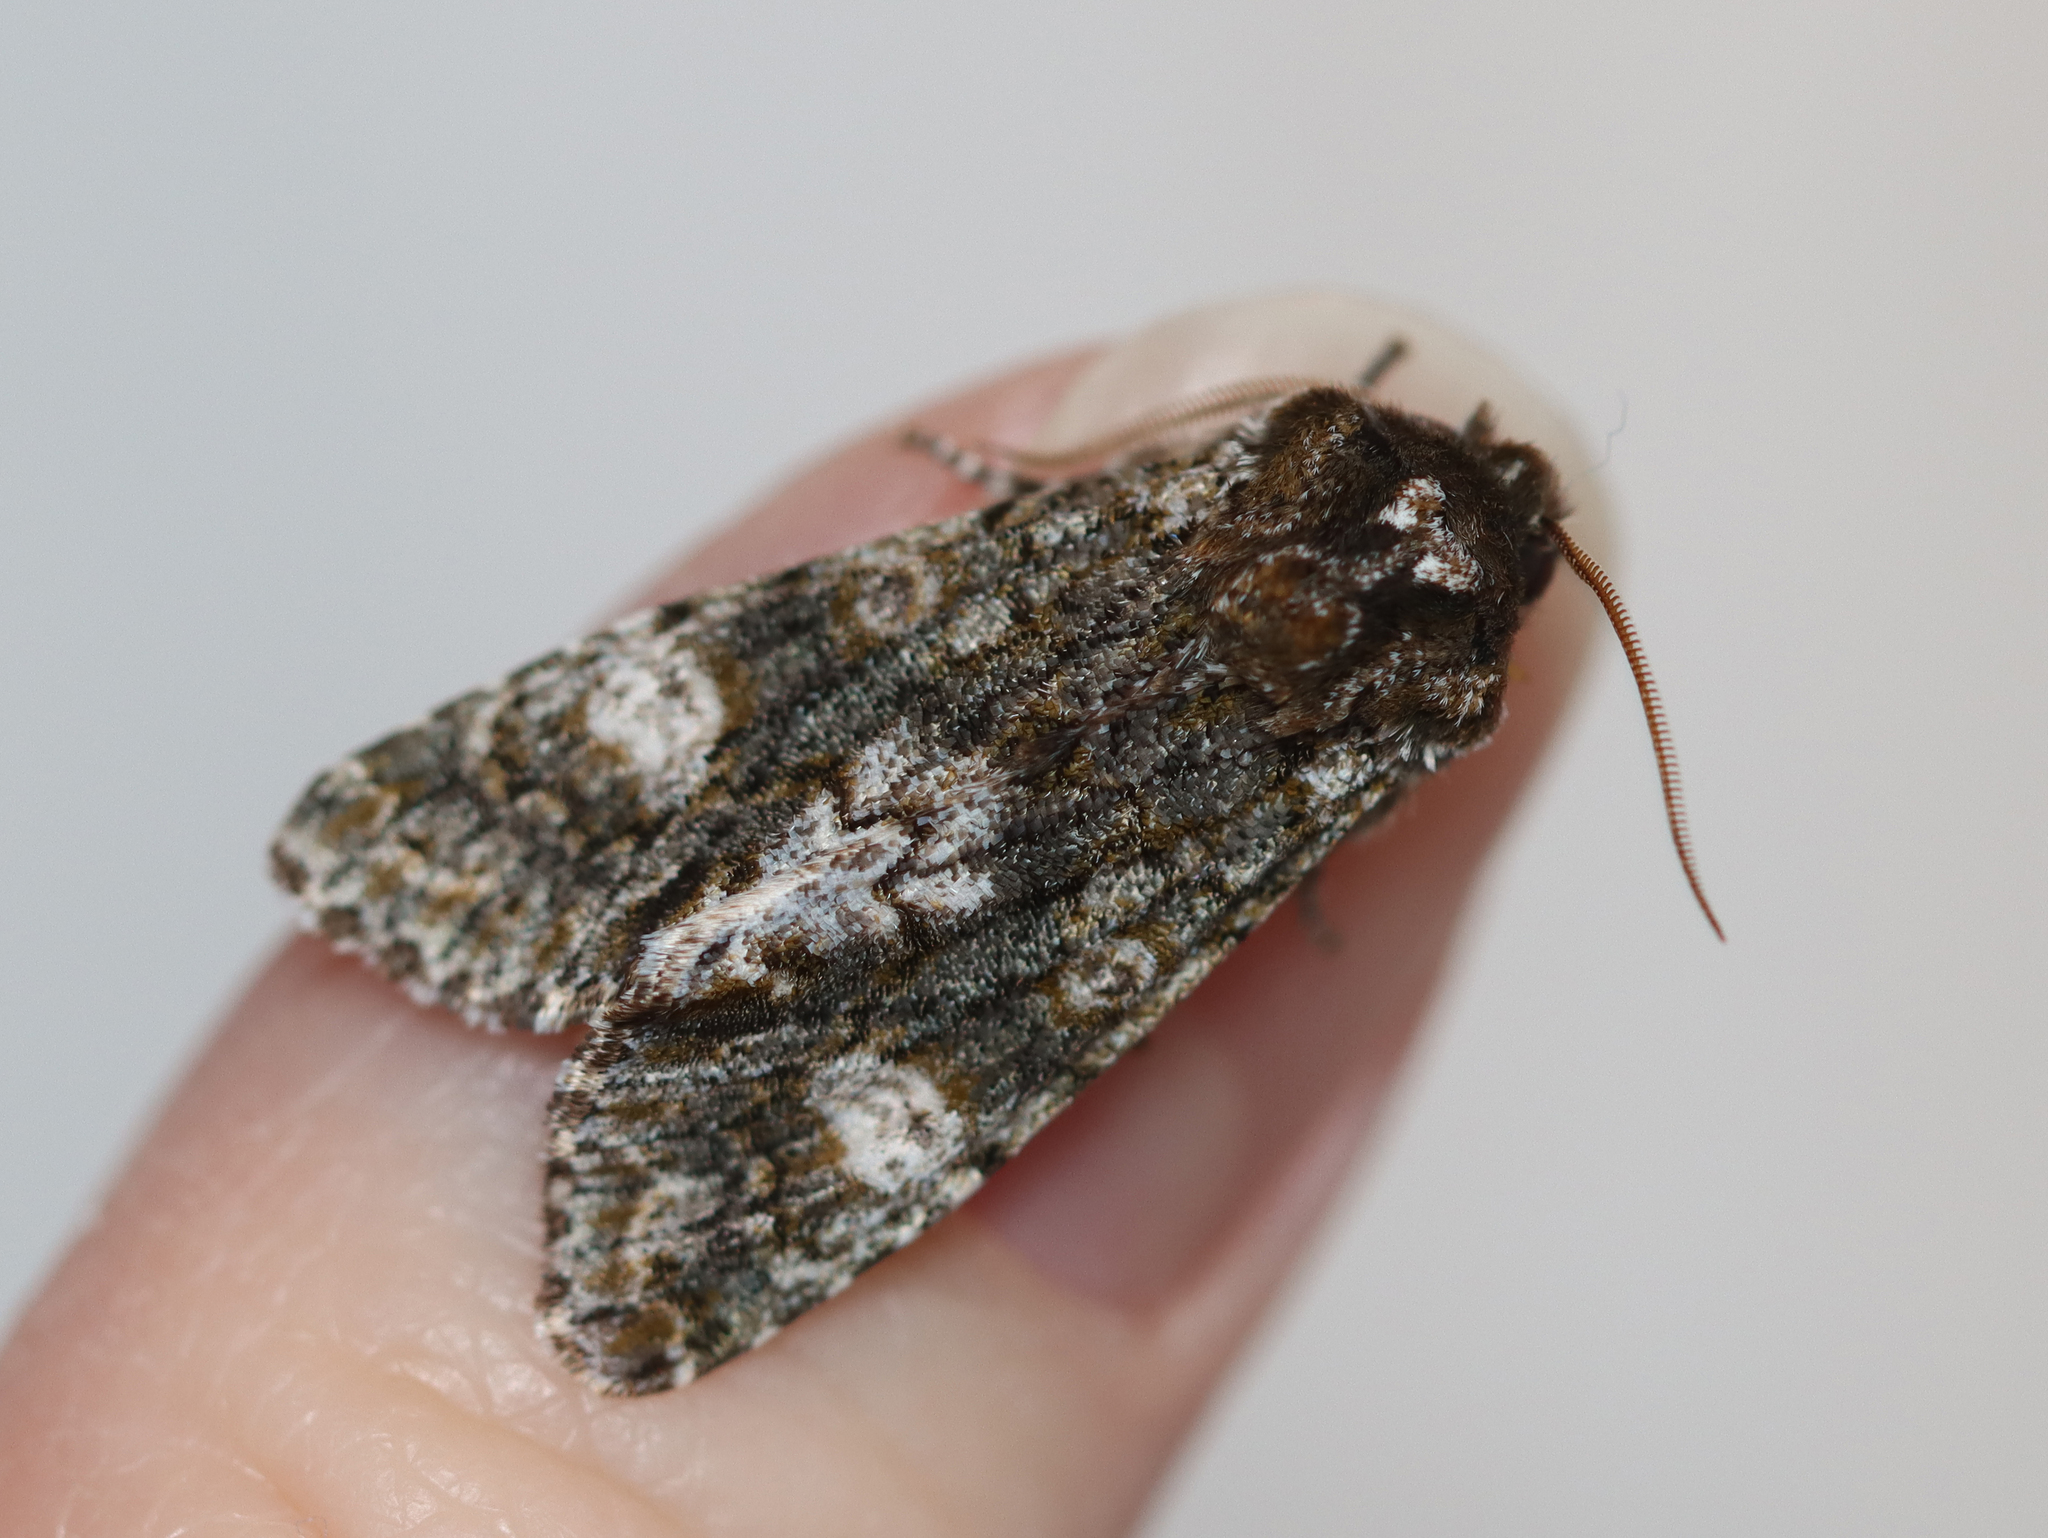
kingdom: Animalia
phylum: Arthropoda
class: Insecta
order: Lepidoptera
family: Noctuidae
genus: Psaphida
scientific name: Psaphida grotei
